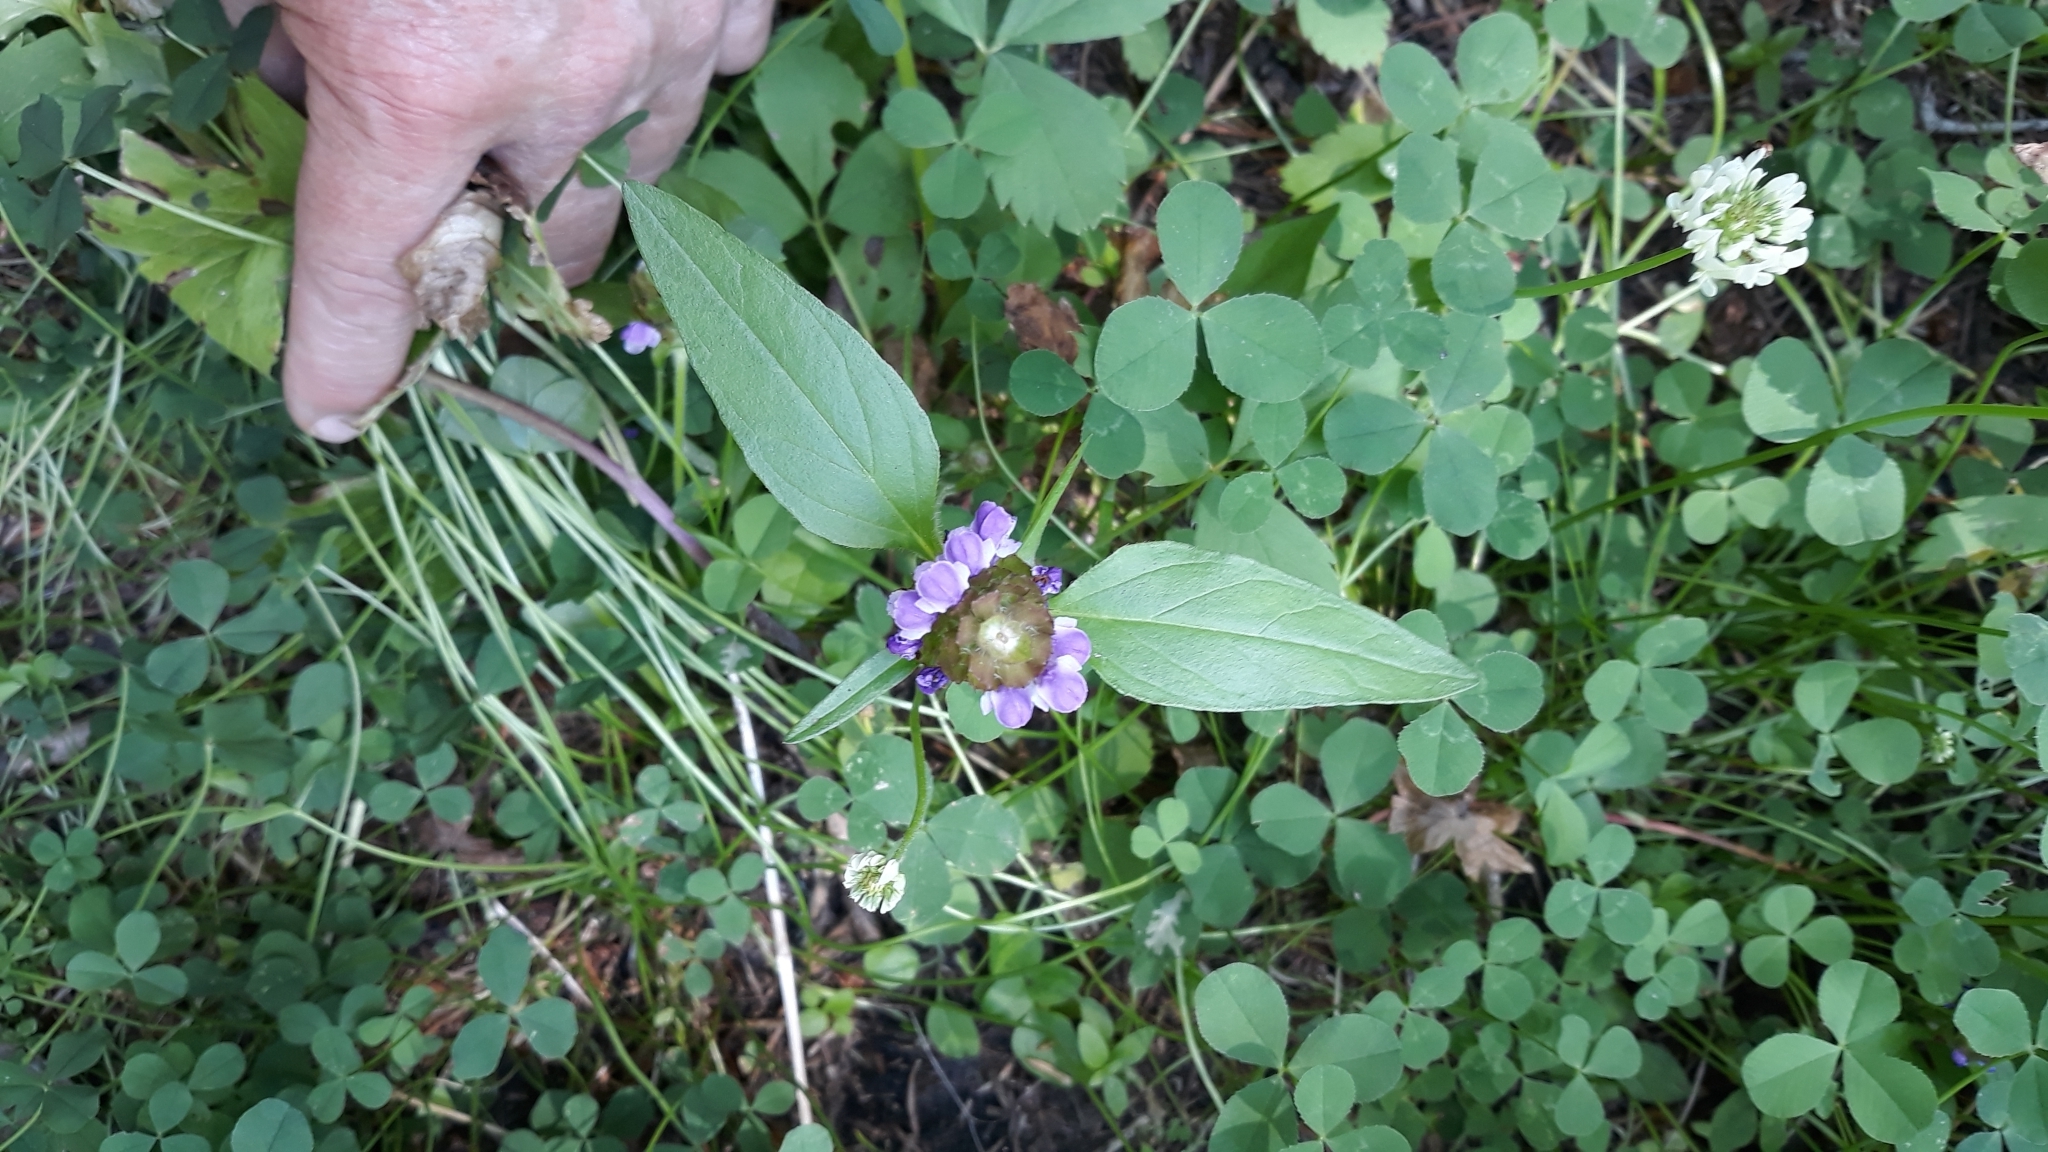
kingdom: Plantae
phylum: Tracheophyta
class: Magnoliopsida
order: Lamiales
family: Lamiaceae
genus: Prunella
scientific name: Prunella vulgaris
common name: Heal-all
